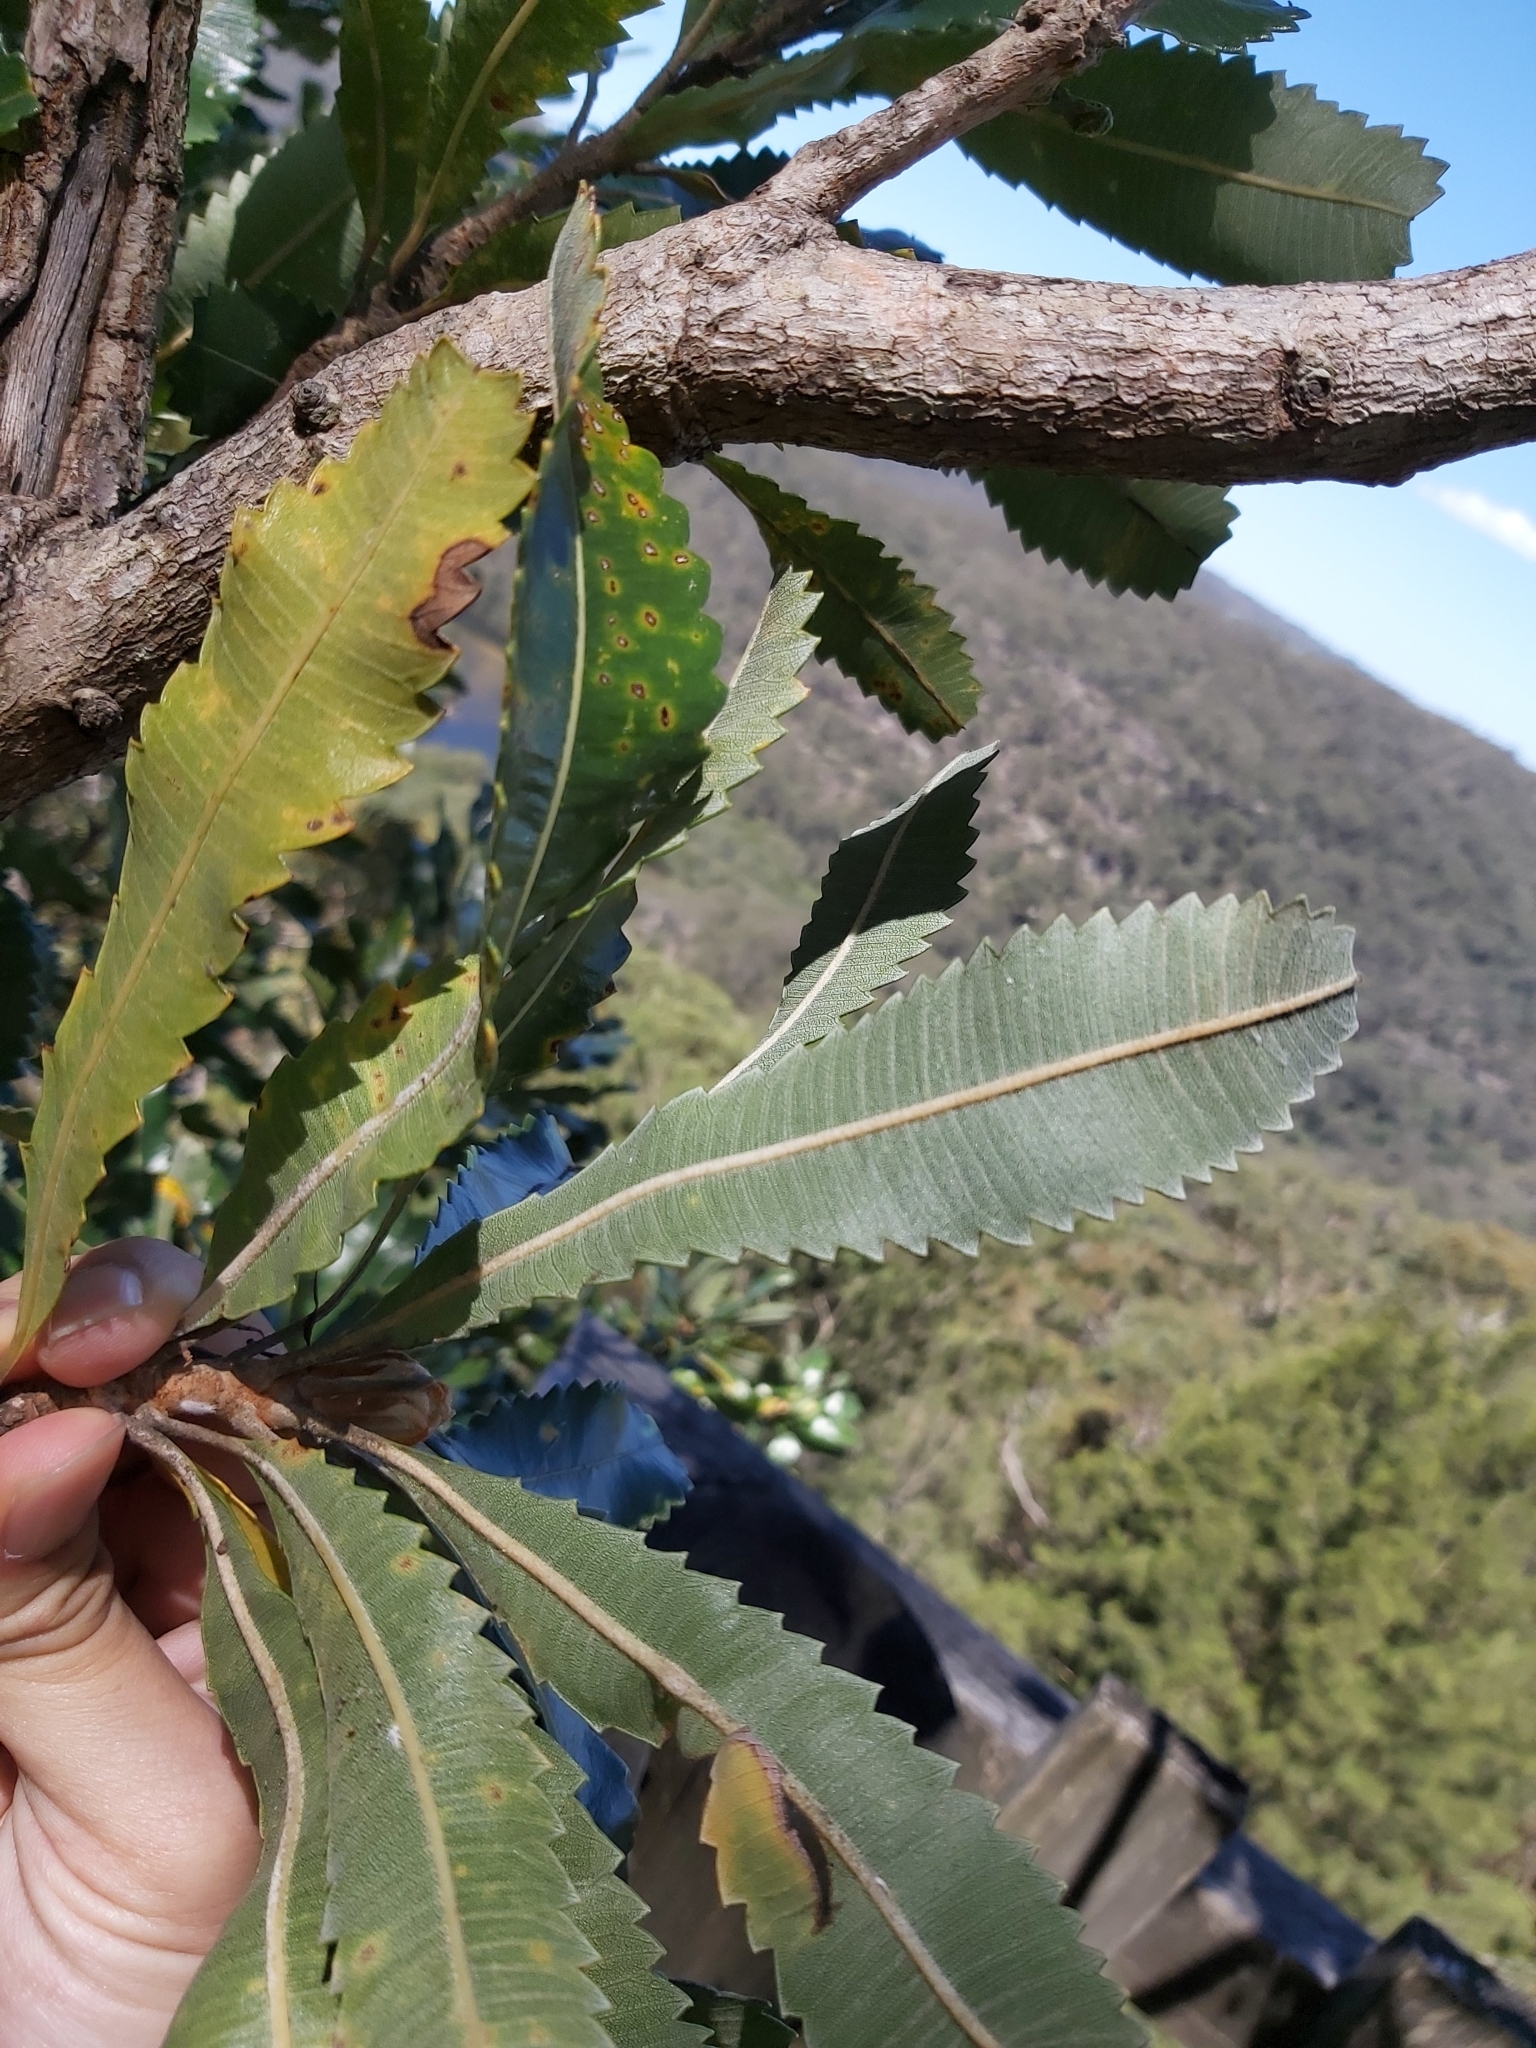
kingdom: Plantae
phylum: Tracheophyta
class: Magnoliopsida
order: Proteales
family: Proteaceae
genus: Banksia
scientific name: Banksia serrata
